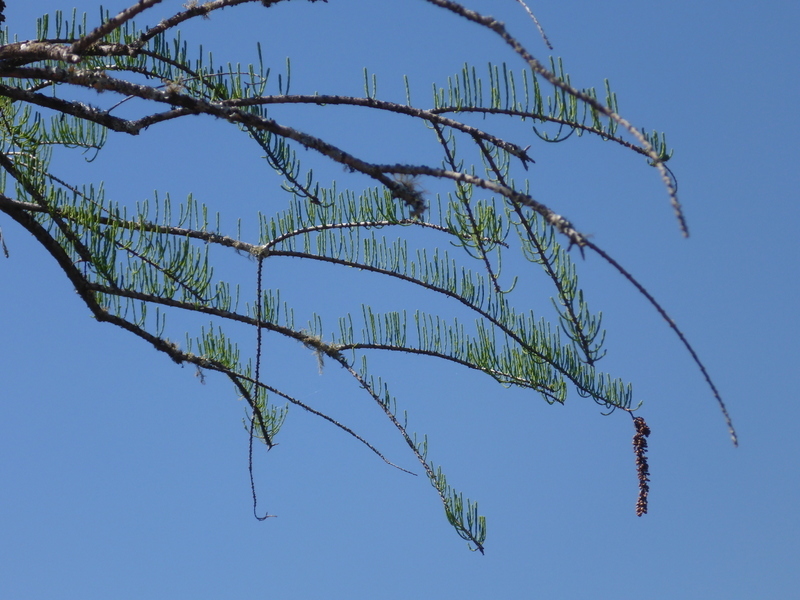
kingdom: Plantae
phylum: Tracheophyta
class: Pinopsida
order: Pinales
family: Cupressaceae
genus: Taxodium
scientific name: Taxodium distichum
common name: Bald cypress
